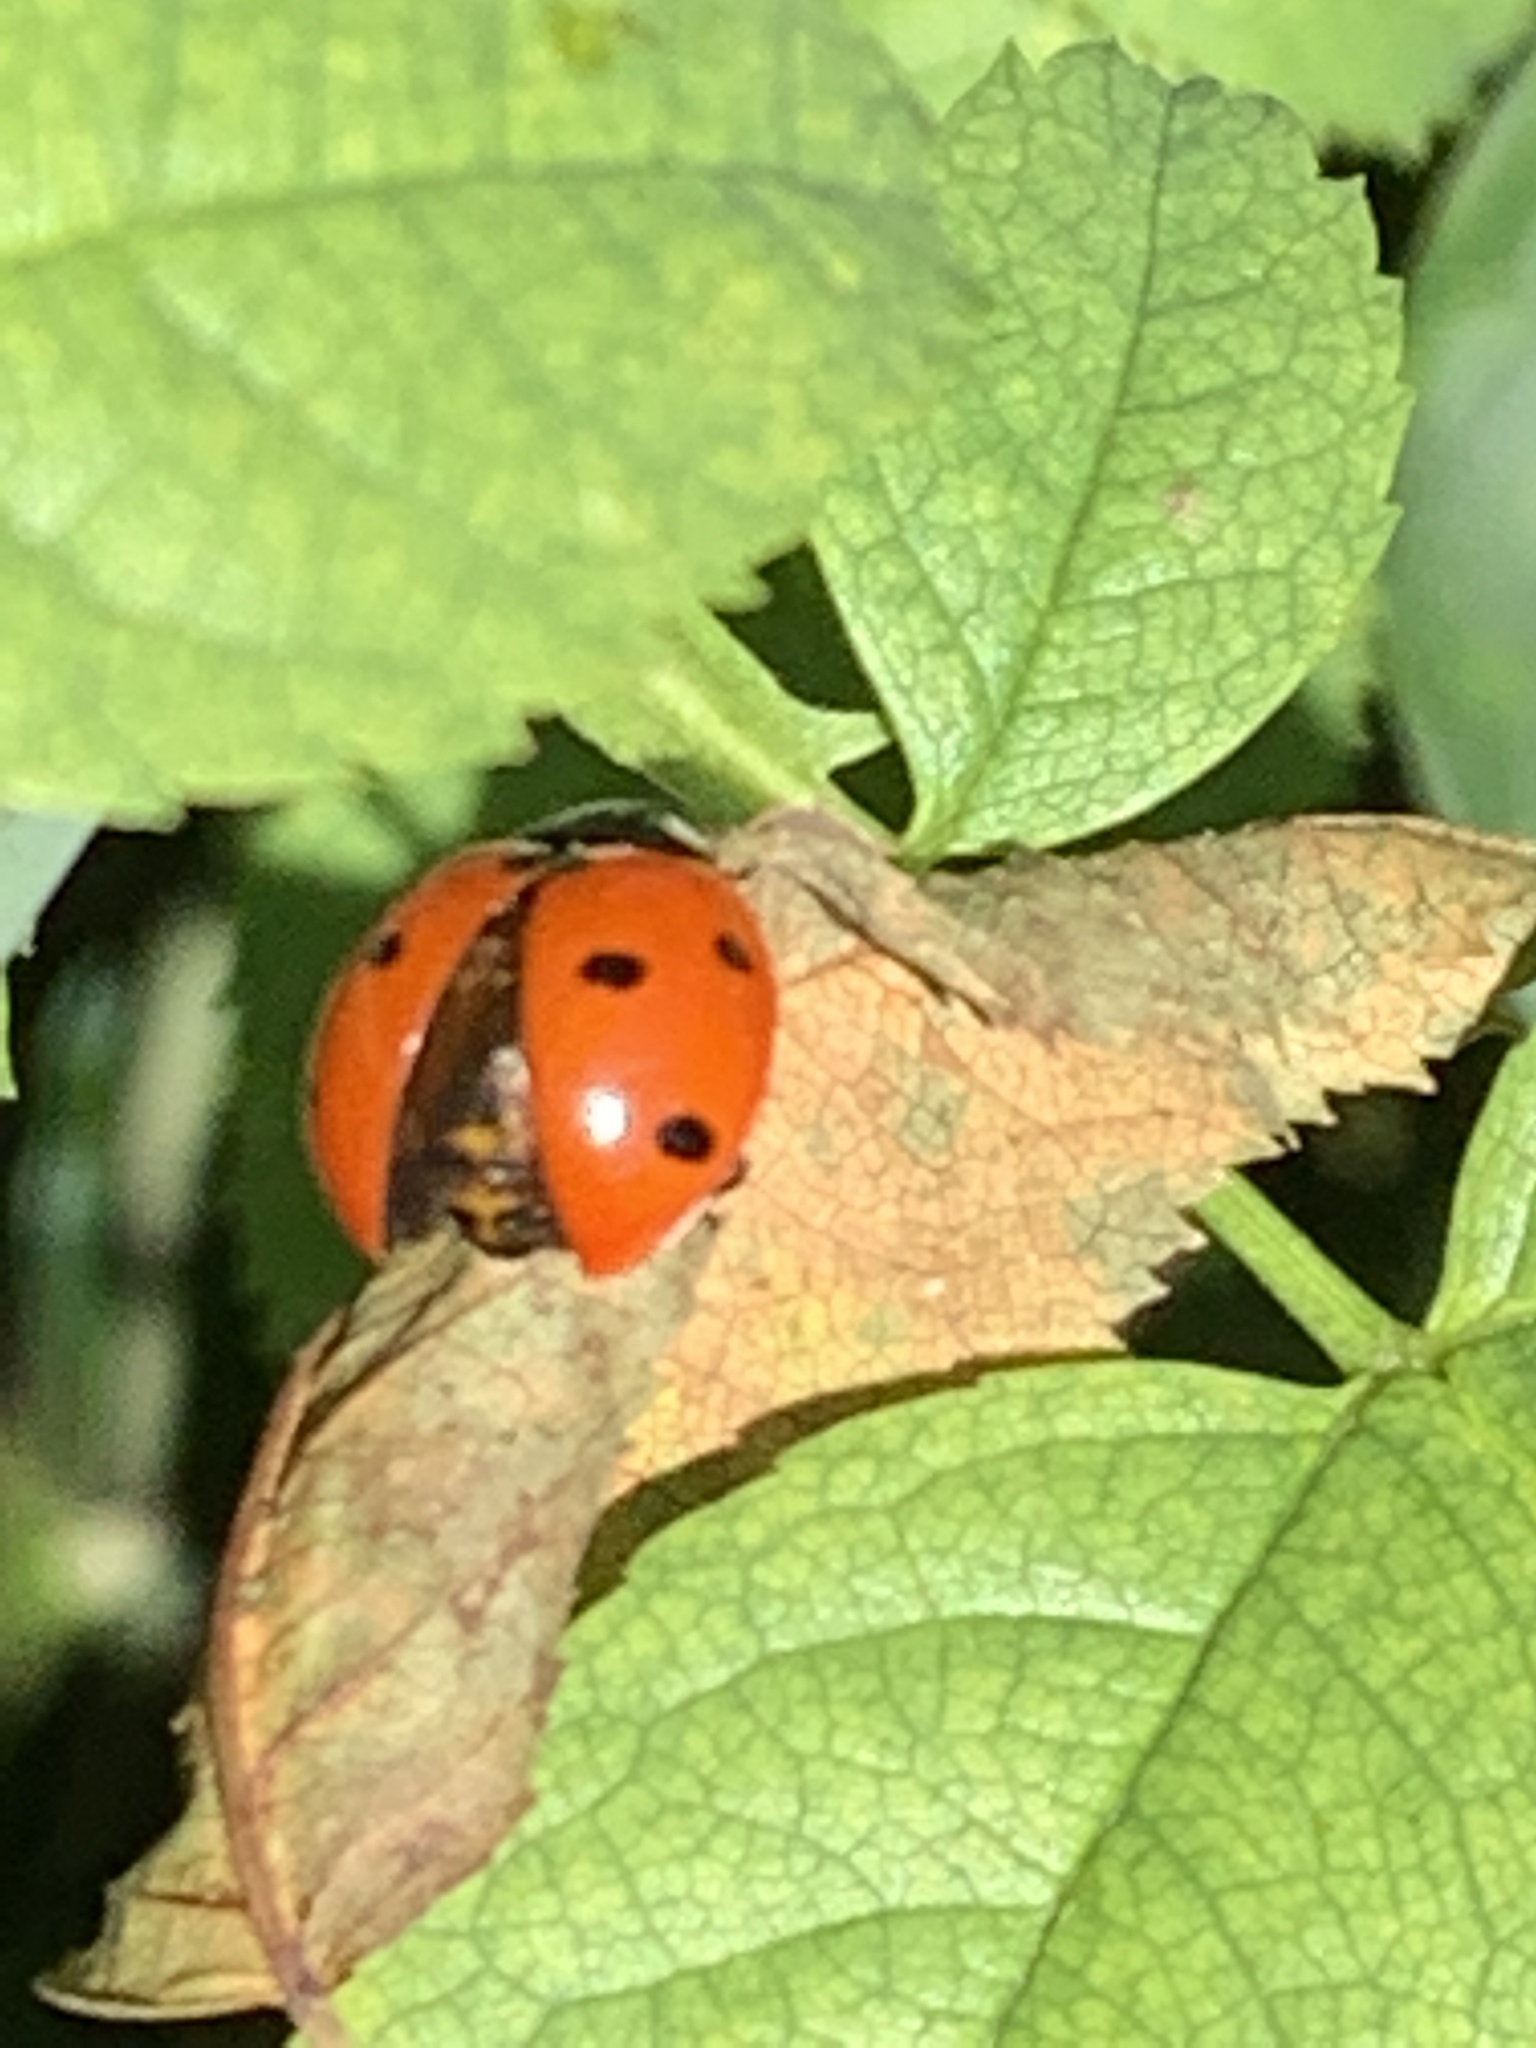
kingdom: Animalia
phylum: Arthropoda
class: Insecta
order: Coleoptera
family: Coccinellidae
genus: Coccinella
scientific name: Coccinella septempunctata
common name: Sevenspotted lady beetle
